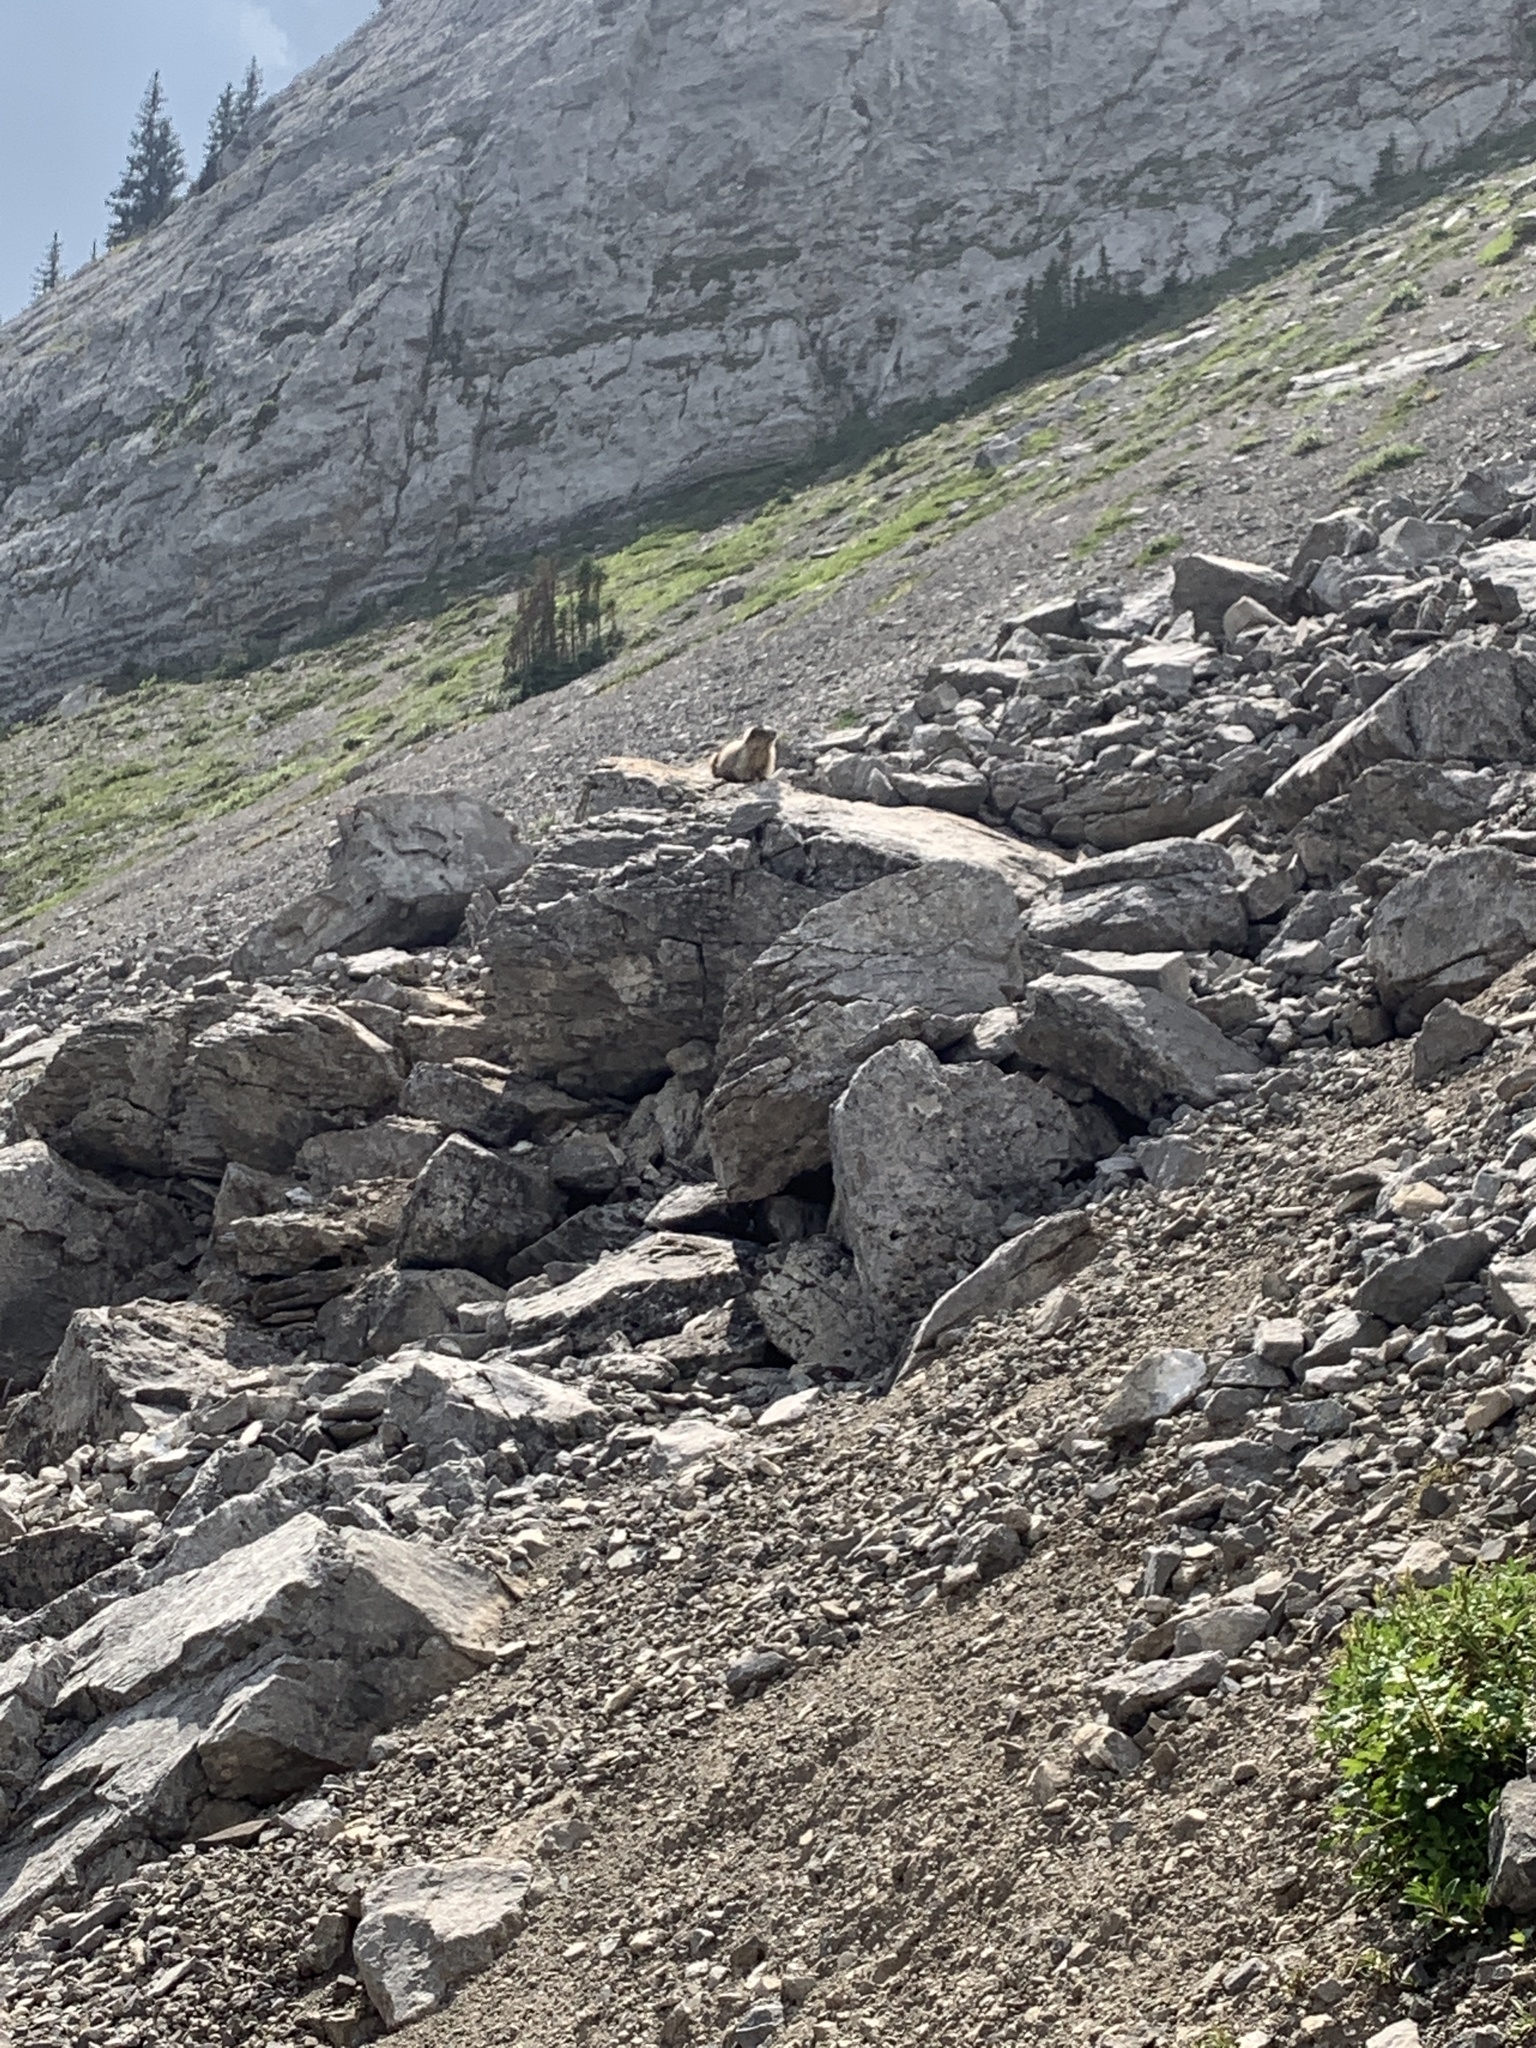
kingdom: Animalia
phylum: Chordata
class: Mammalia
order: Rodentia
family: Sciuridae
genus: Marmota
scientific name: Marmota caligata
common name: Hoary marmot
